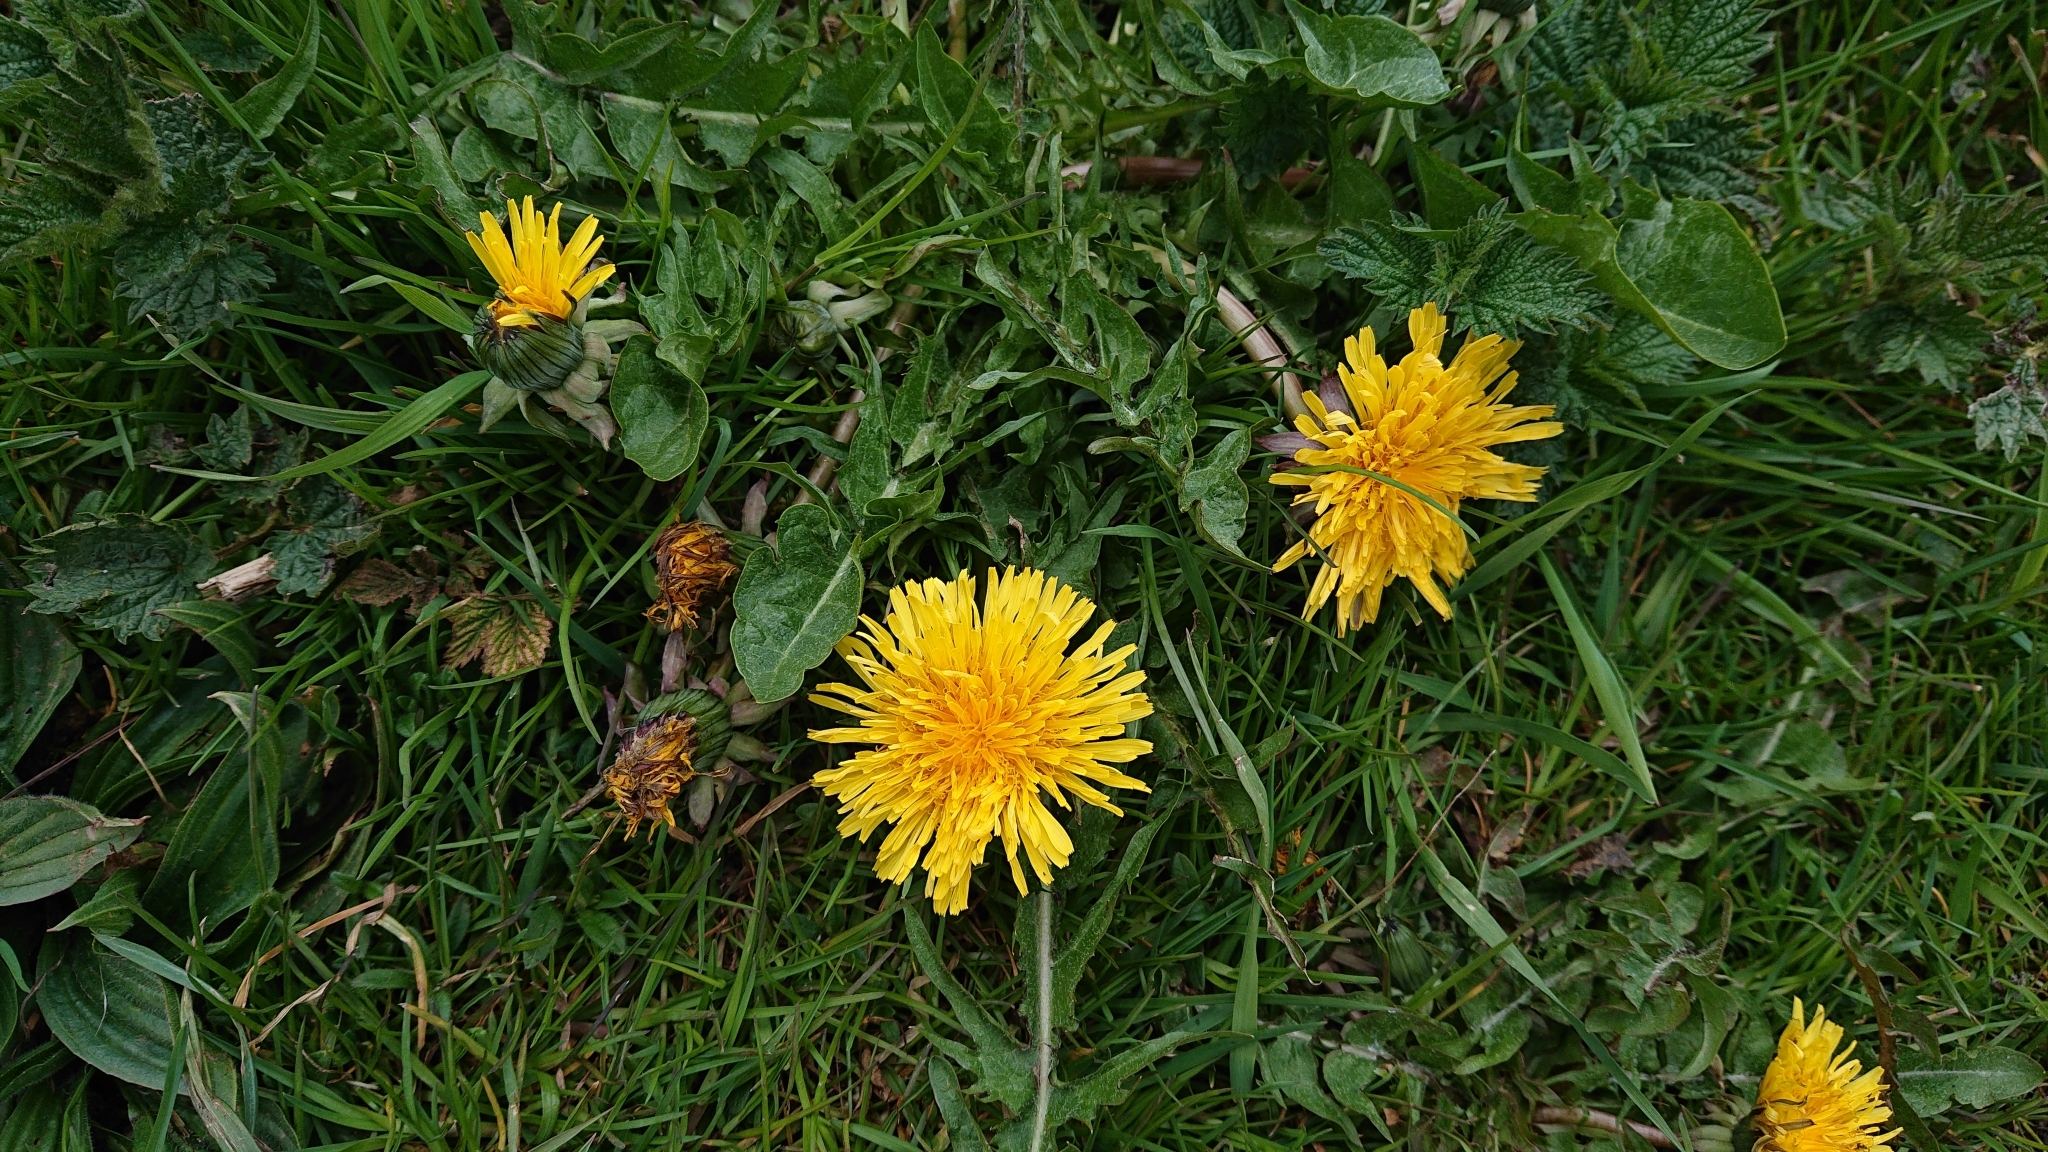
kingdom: Plantae
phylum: Tracheophyta
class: Magnoliopsida
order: Asterales
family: Asteraceae
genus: Taraxacum
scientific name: Taraxacum officinale
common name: Common dandelion
